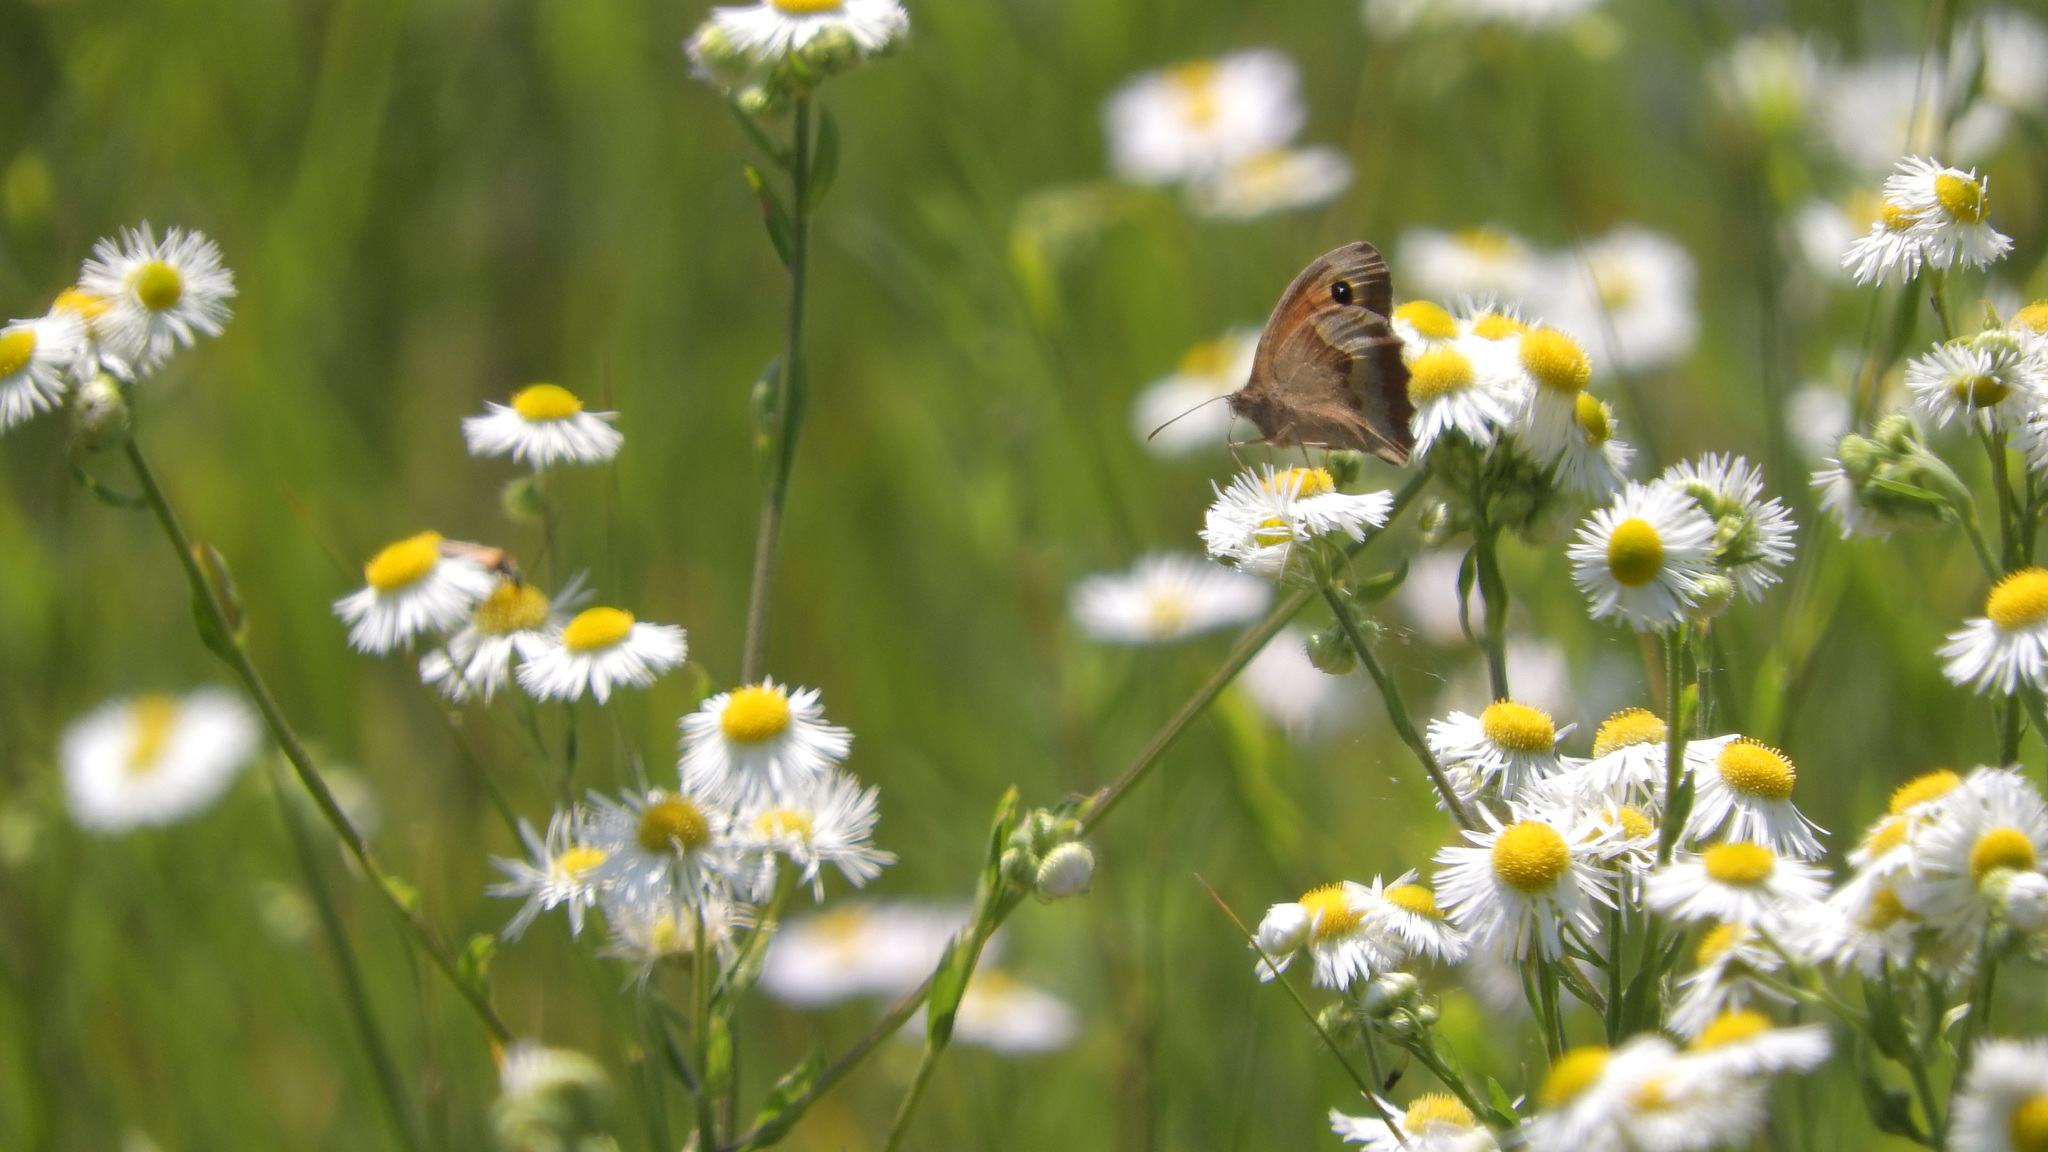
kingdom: Animalia
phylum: Arthropoda
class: Insecta
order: Lepidoptera
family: Nymphalidae
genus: Maniola
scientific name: Maniola jurtina
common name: Meadow brown
